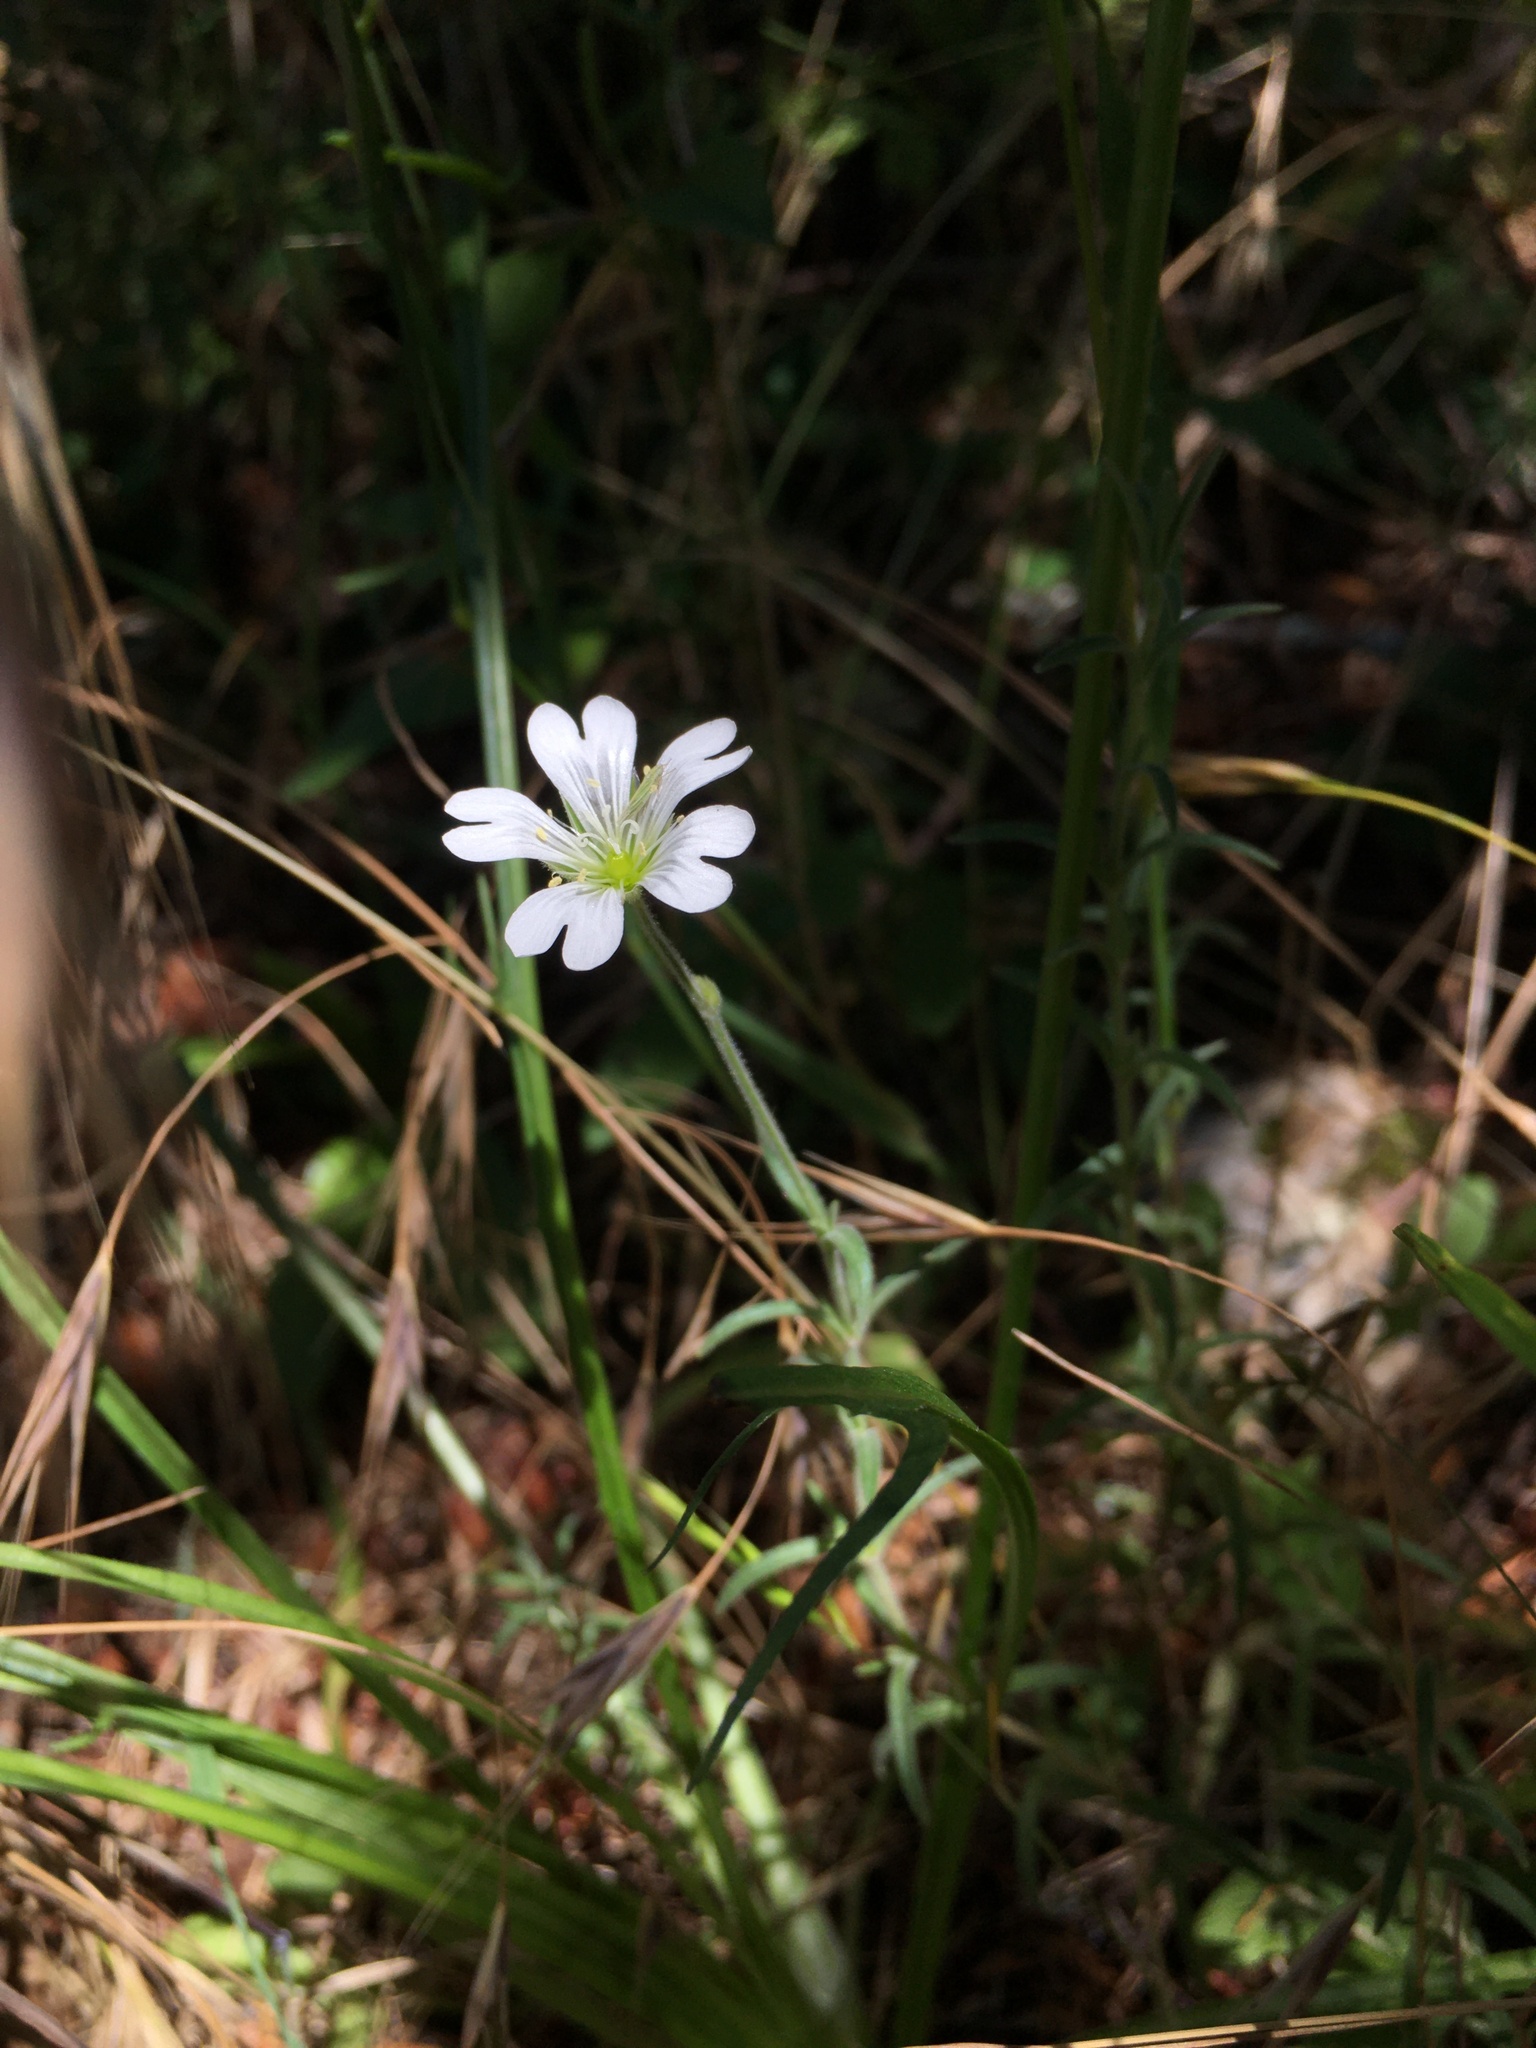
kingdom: Plantae
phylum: Tracheophyta
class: Magnoliopsida
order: Caryophyllales
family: Caryophyllaceae
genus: Cerastium
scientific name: Cerastium arvense
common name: Field mouse-ear
